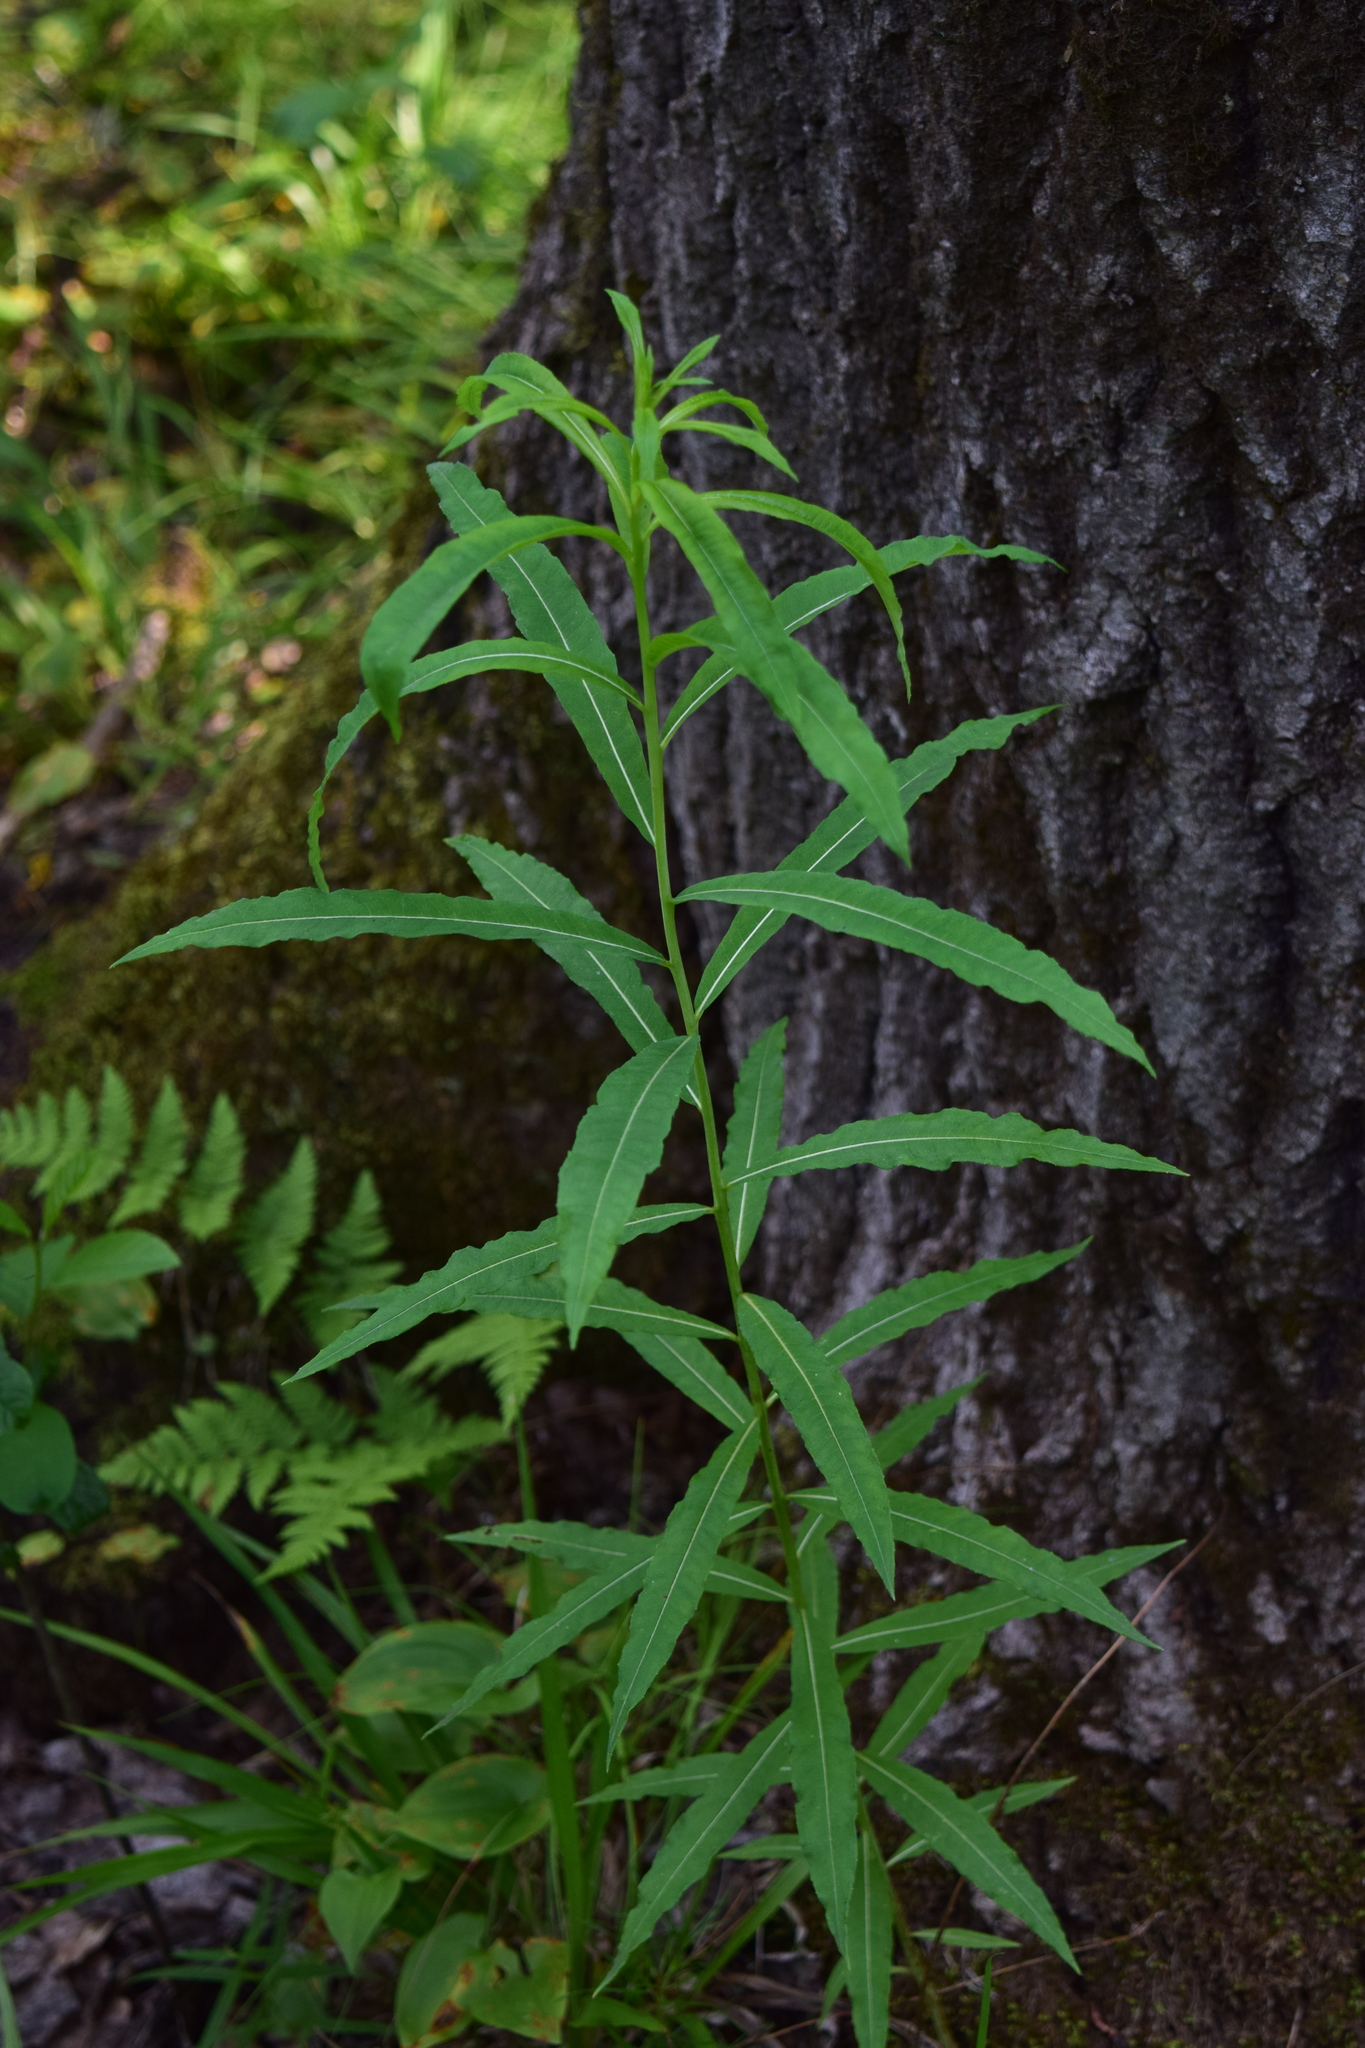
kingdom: Plantae
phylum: Tracheophyta
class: Magnoliopsida
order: Myrtales
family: Onagraceae
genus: Chamaenerion
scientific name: Chamaenerion angustifolium
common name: Fireweed
